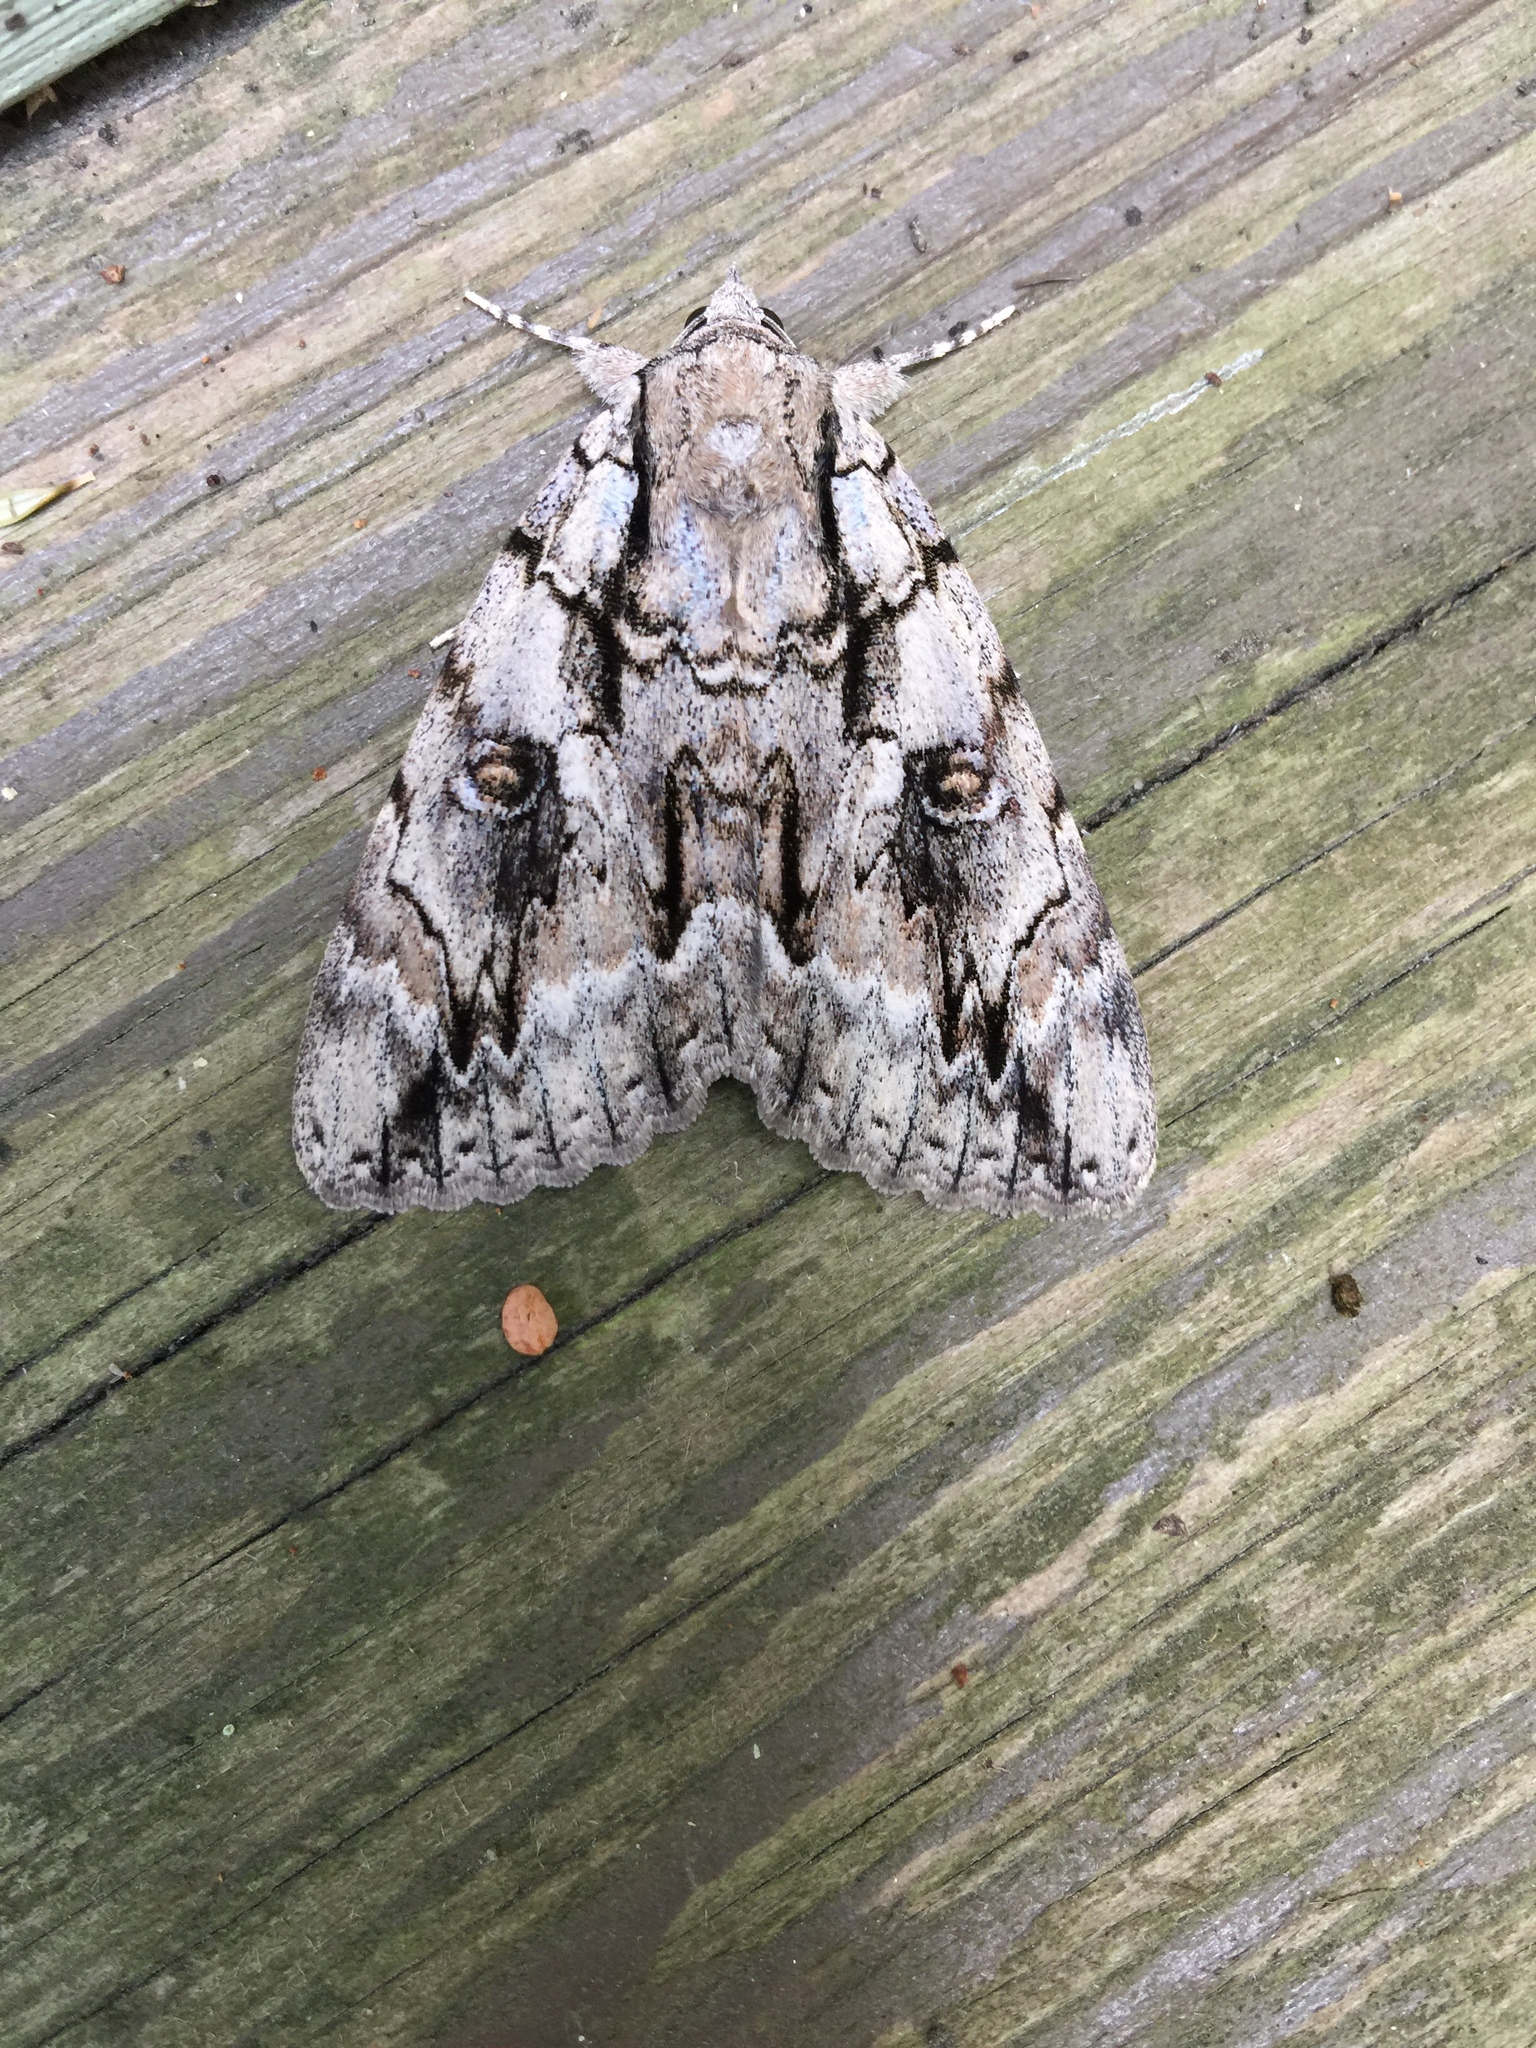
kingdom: Animalia
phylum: Arthropoda
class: Insecta
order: Lepidoptera
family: Erebidae
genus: Catocala
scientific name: Catocala retecta
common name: Yellow-gray underwing
